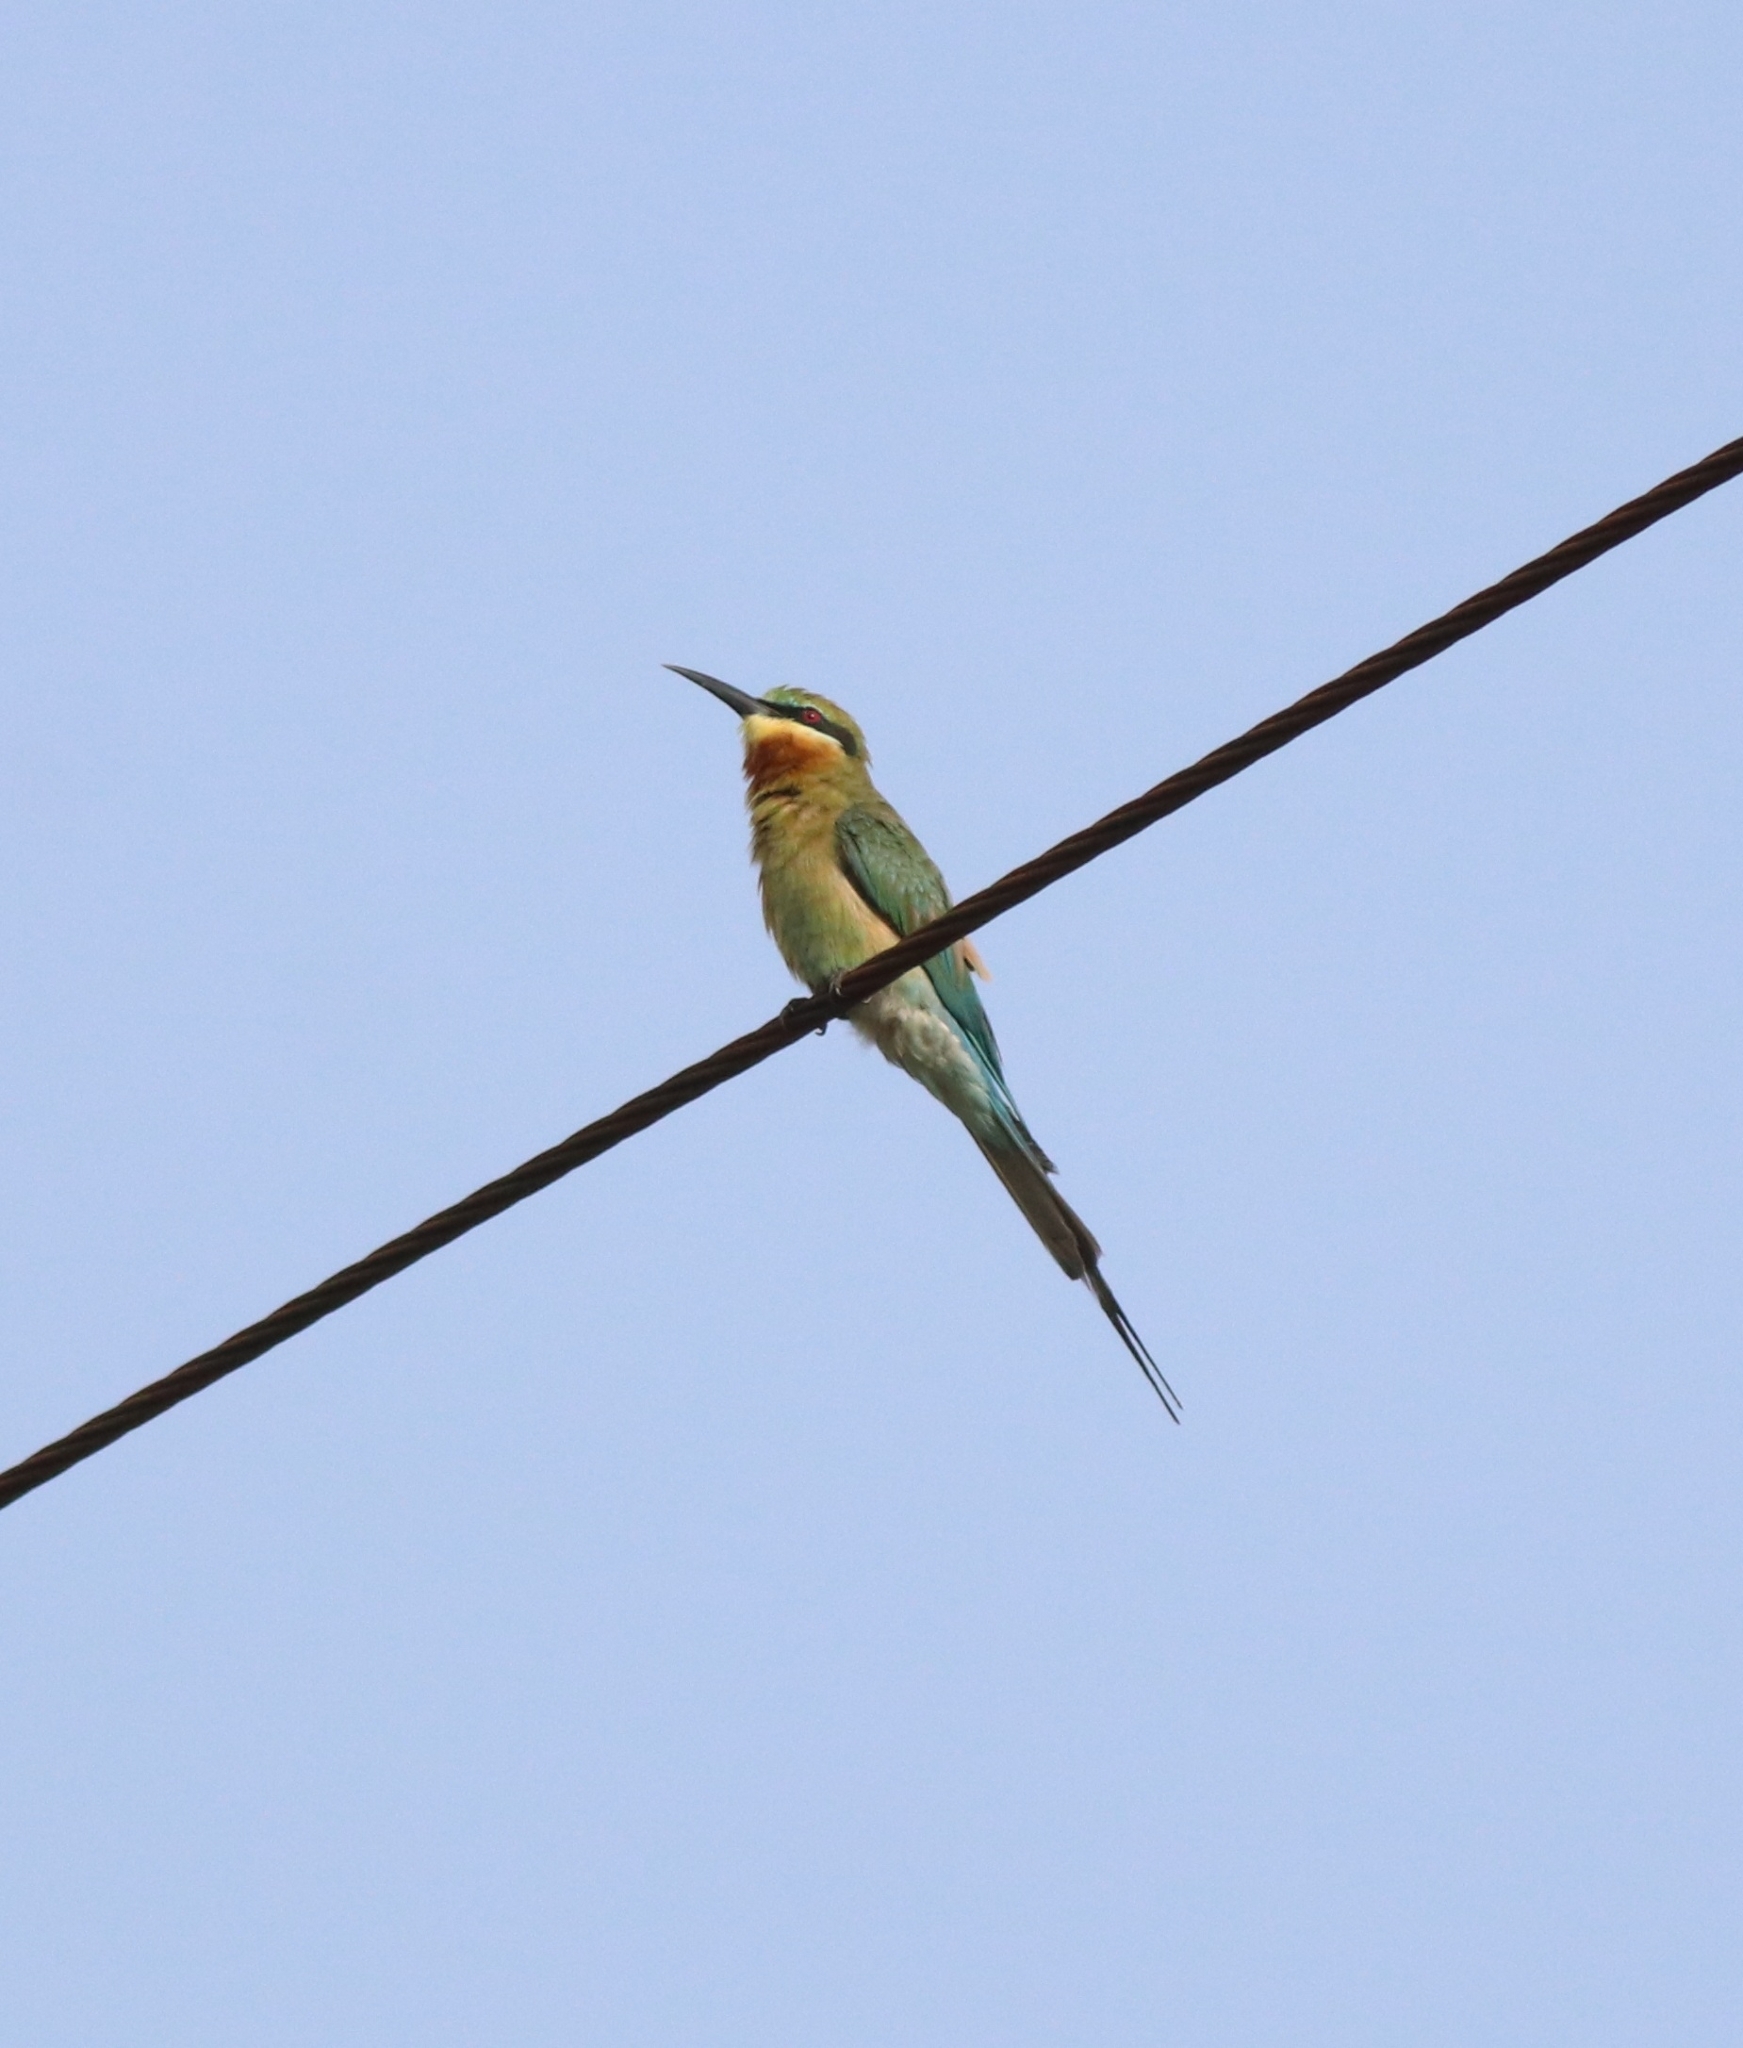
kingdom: Animalia
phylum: Chordata
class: Aves
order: Coraciiformes
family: Meropidae
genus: Merops
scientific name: Merops philippinus
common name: Blue-tailed bee-eater
